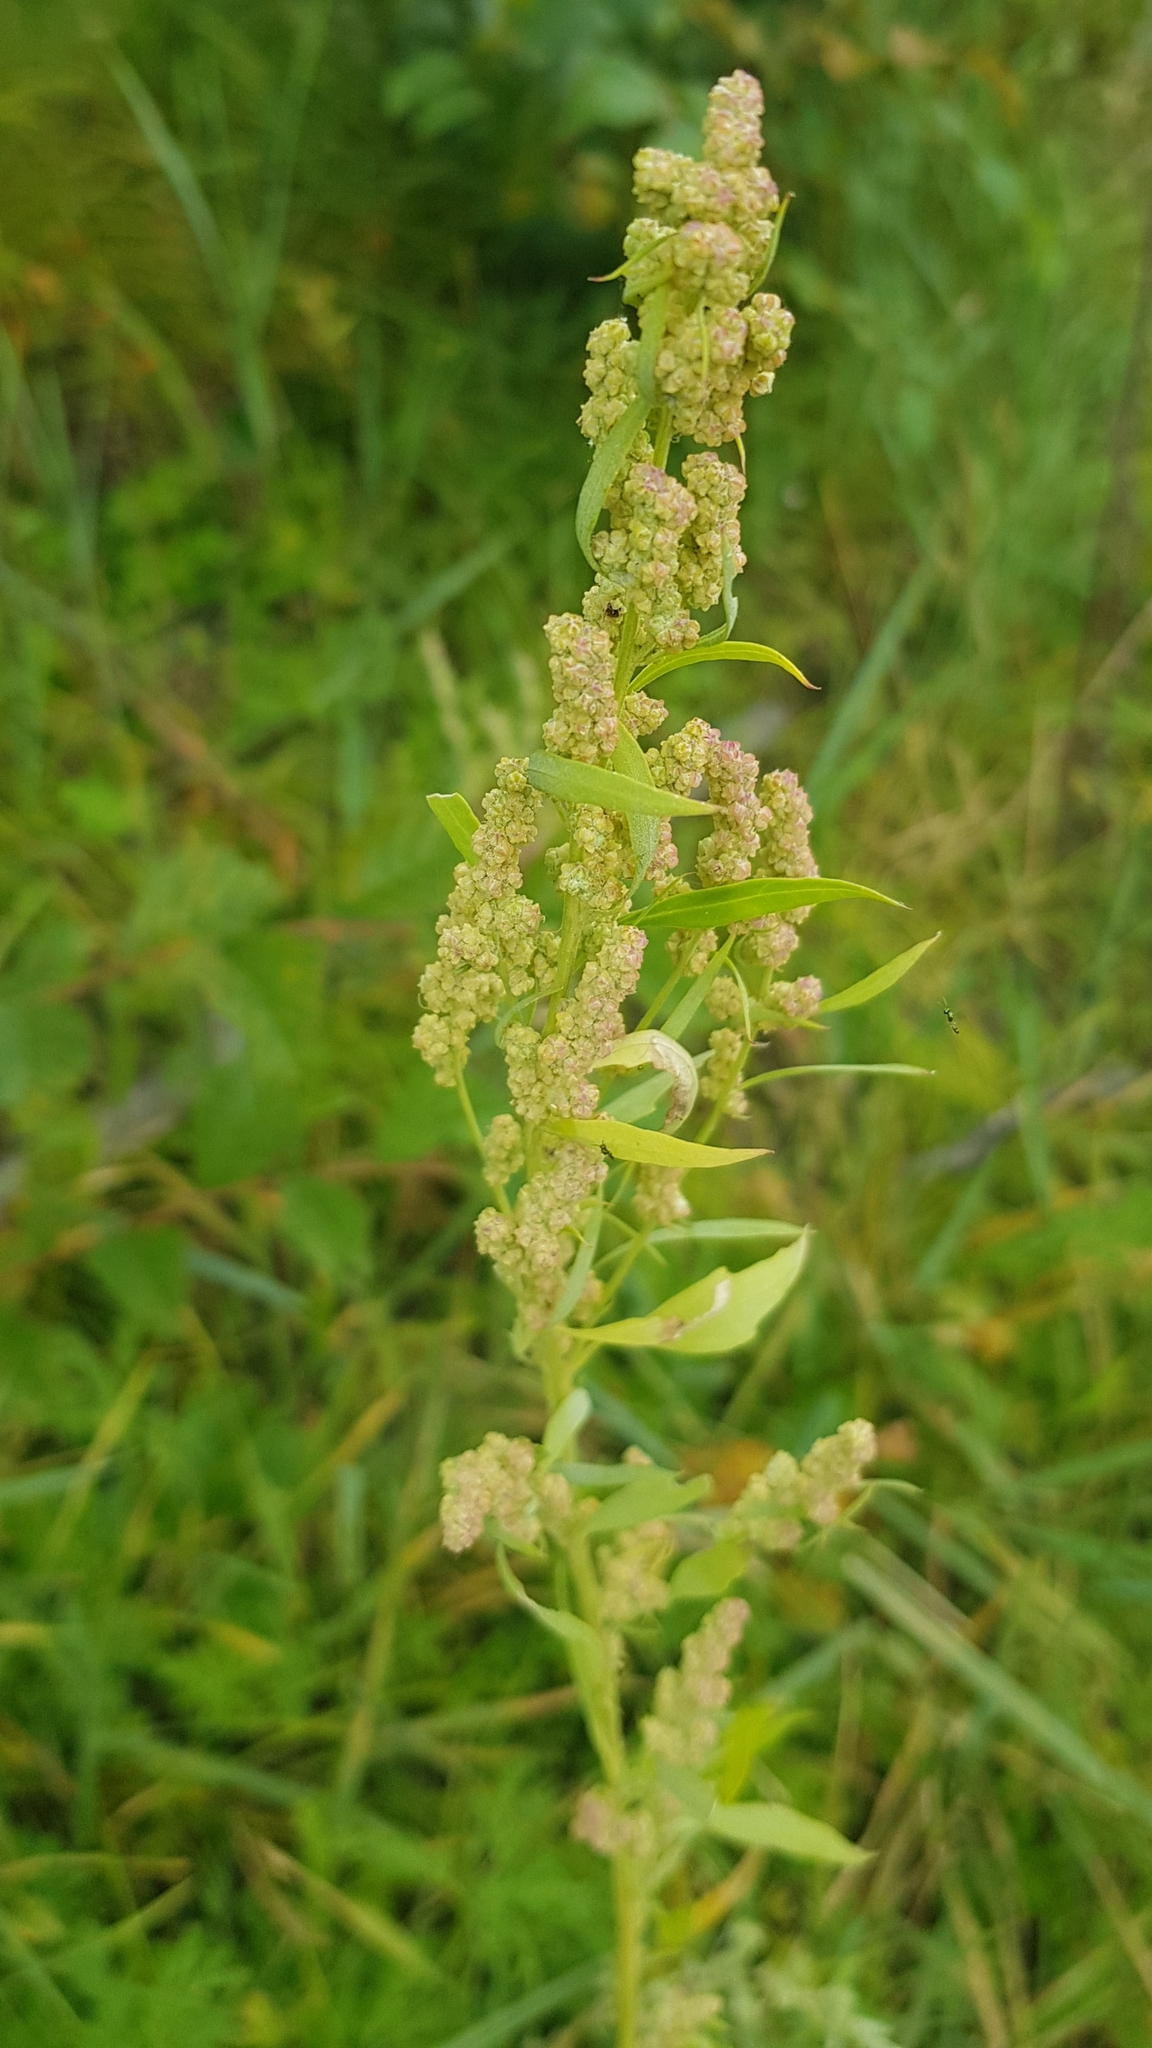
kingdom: Plantae
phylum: Tracheophyta
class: Magnoliopsida
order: Caryophyllales
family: Amaranthaceae
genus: Chenopodium
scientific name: Chenopodium album
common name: Fat-hen
